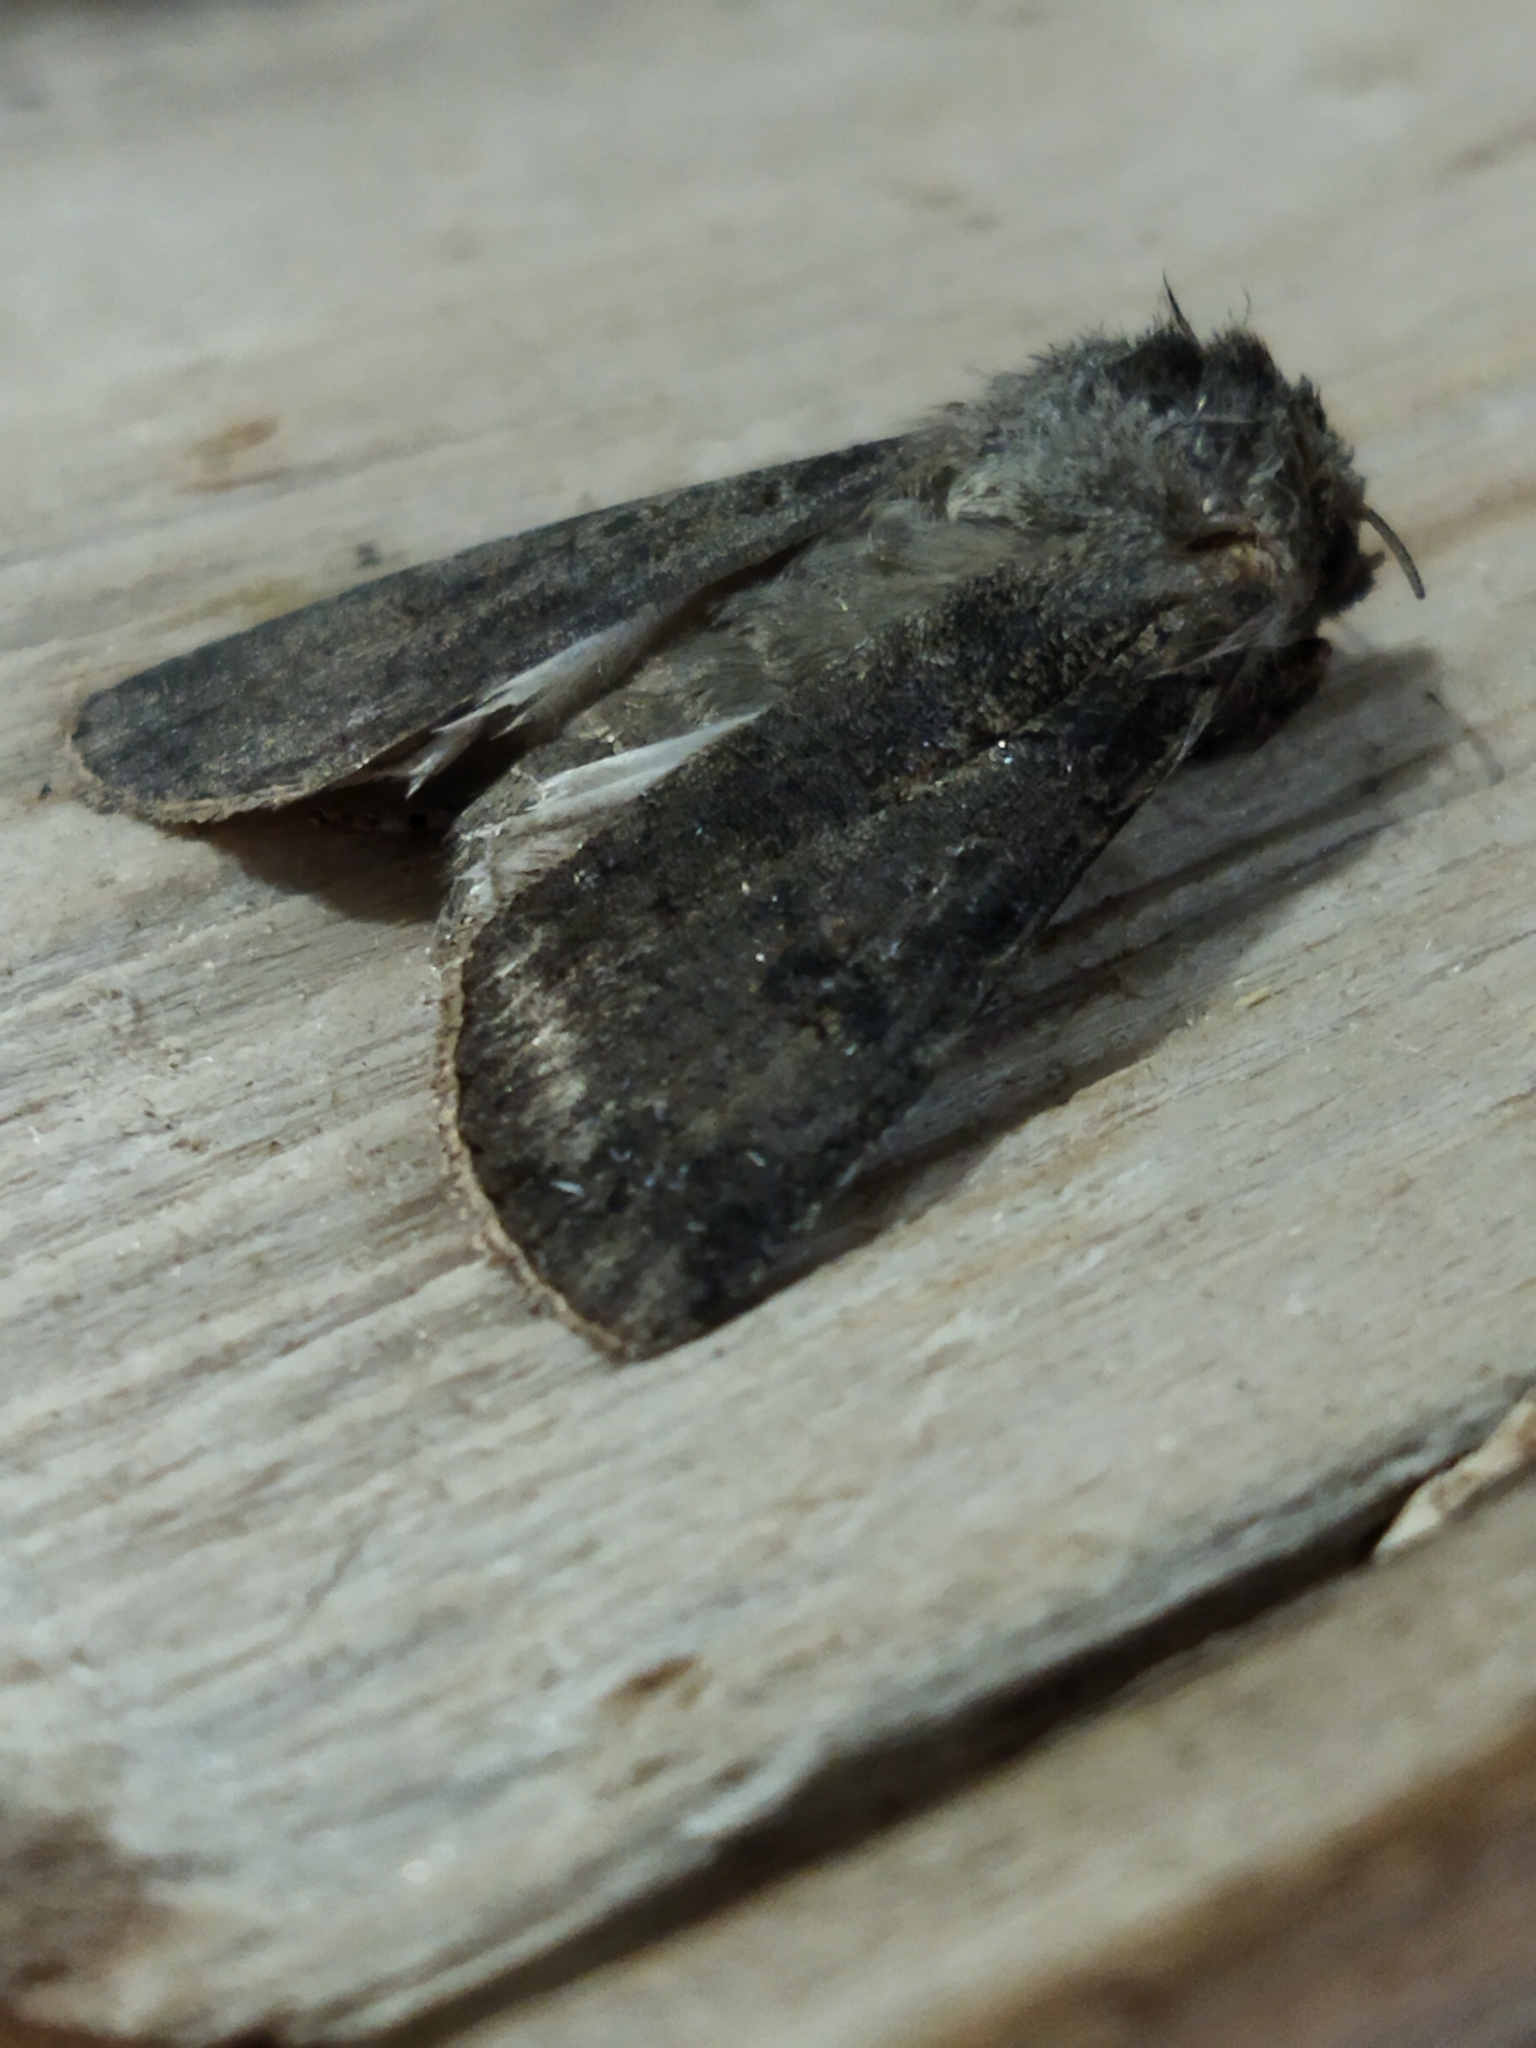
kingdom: Animalia
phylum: Arthropoda
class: Insecta
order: Lepidoptera
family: Noctuidae
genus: Agrotis
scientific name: Agrotis segetum
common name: Turnip moth
